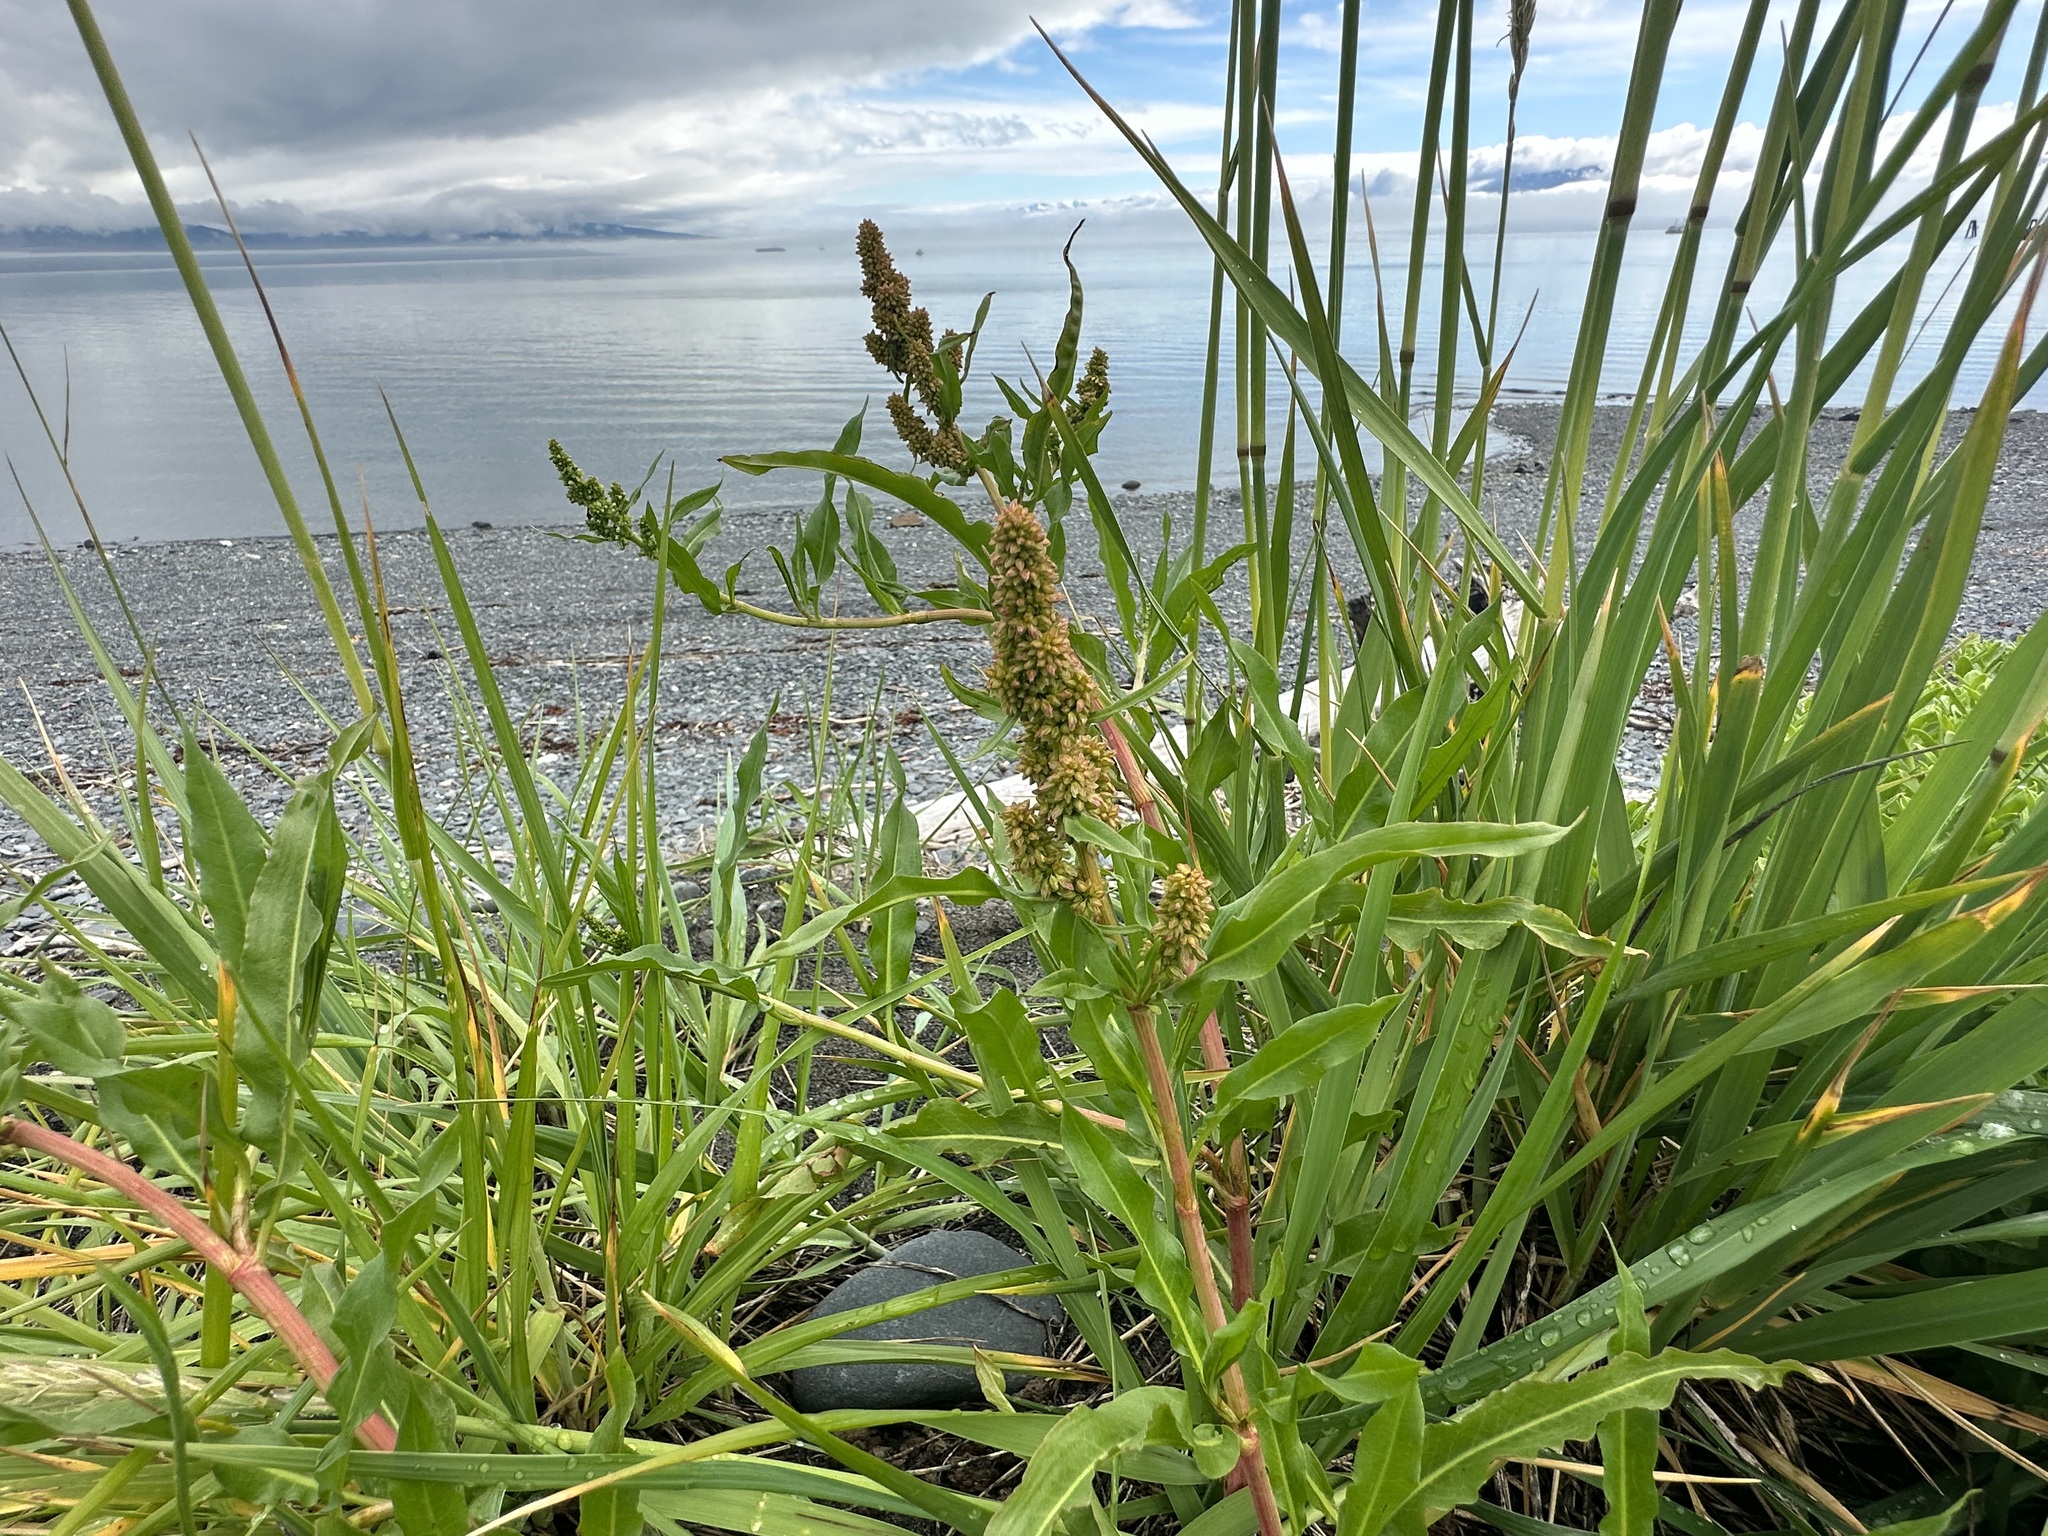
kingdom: Plantae
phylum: Tracheophyta
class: Magnoliopsida
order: Caryophyllales
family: Polygonaceae
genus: Rumex
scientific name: Rumex transitorius
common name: Pacific willow dock
